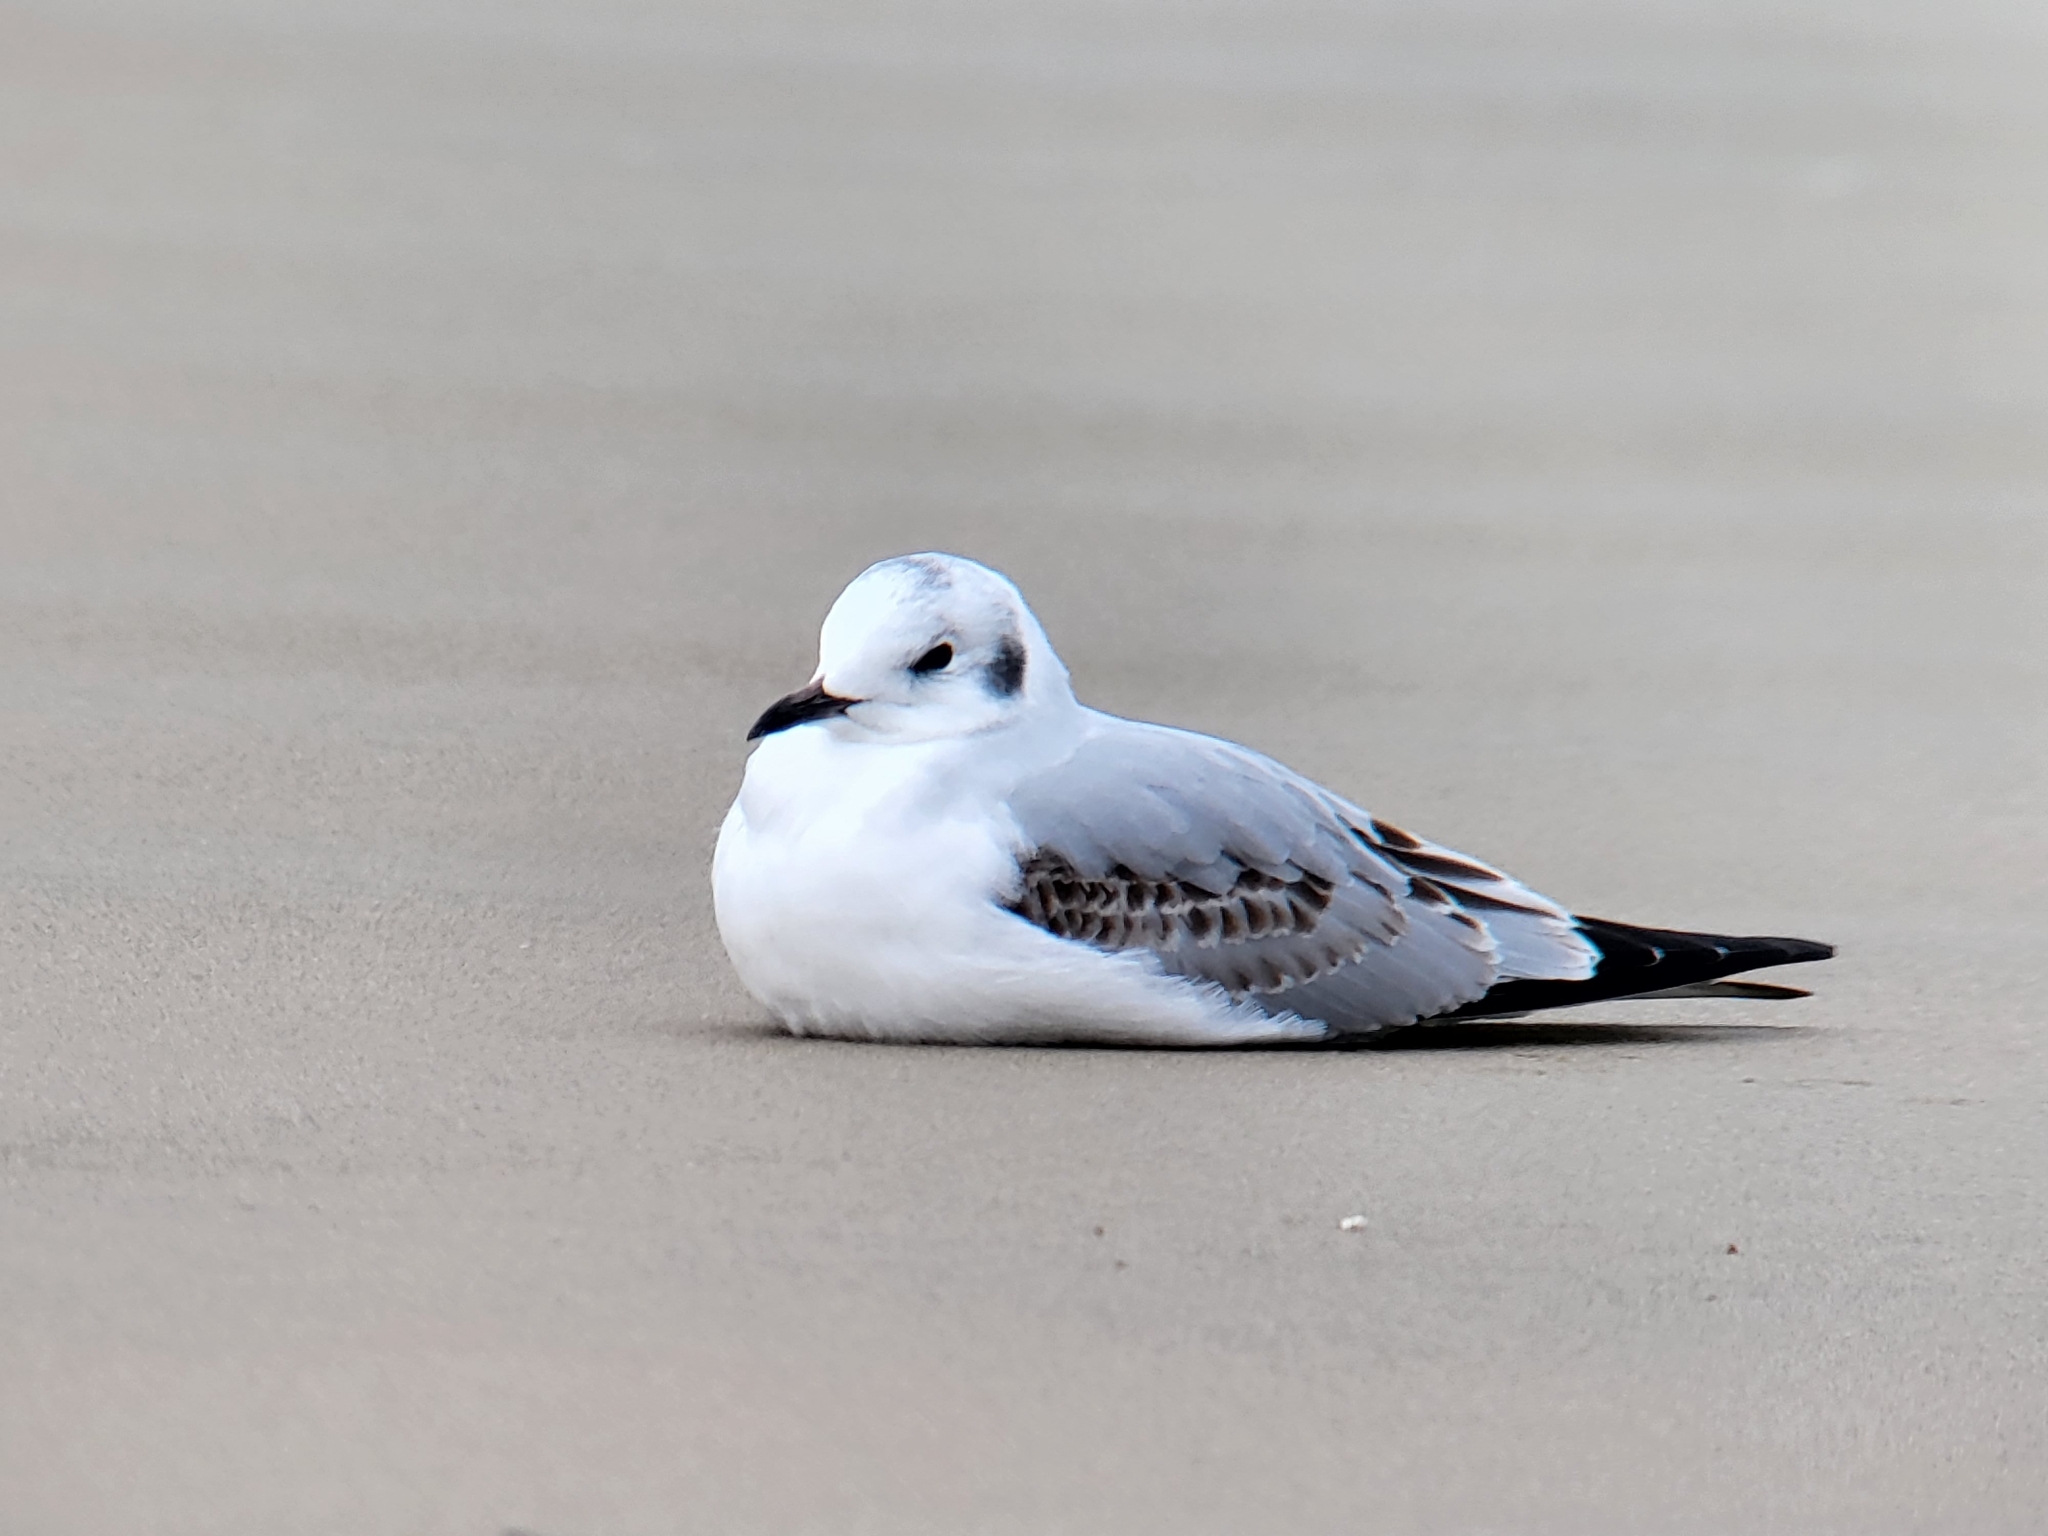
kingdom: Animalia
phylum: Chordata
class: Aves
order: Charadriiformes
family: Laridae
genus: Chroicocephalus
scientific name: Chroicocephalus philadelphia
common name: Bonaparte's gull
